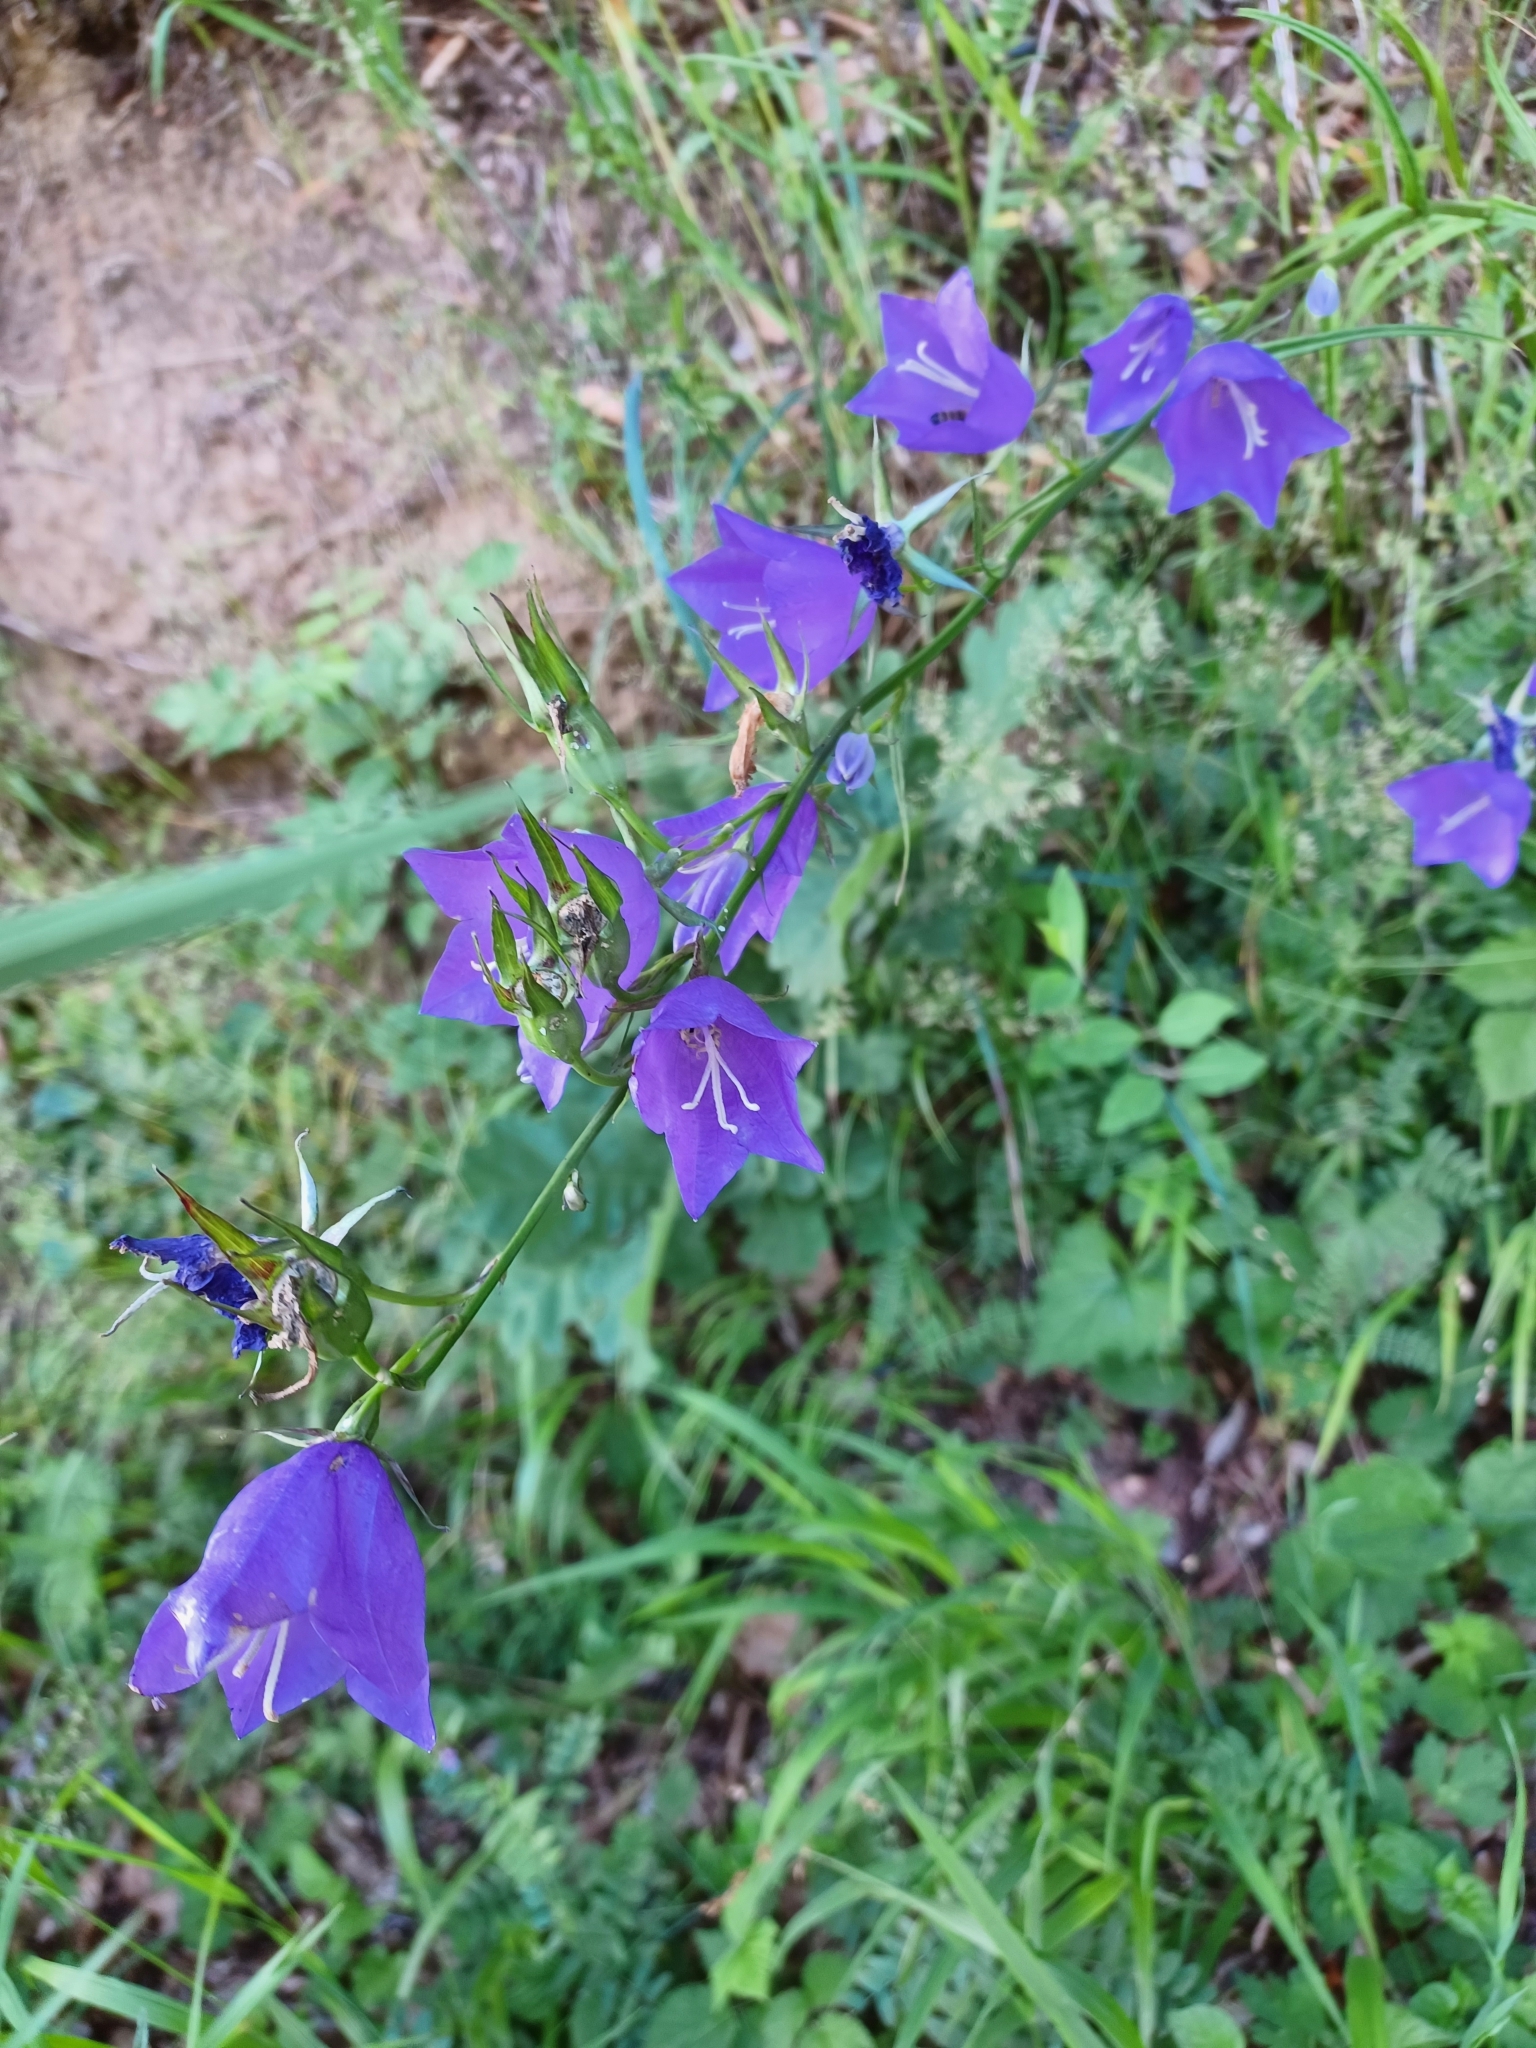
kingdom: Plantae
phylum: Tracheophyta
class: Magnoliopsida
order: Asterales
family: Campanulaceae
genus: Campanula
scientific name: Campanula persicifolia
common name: Peach-leaved bellflower
